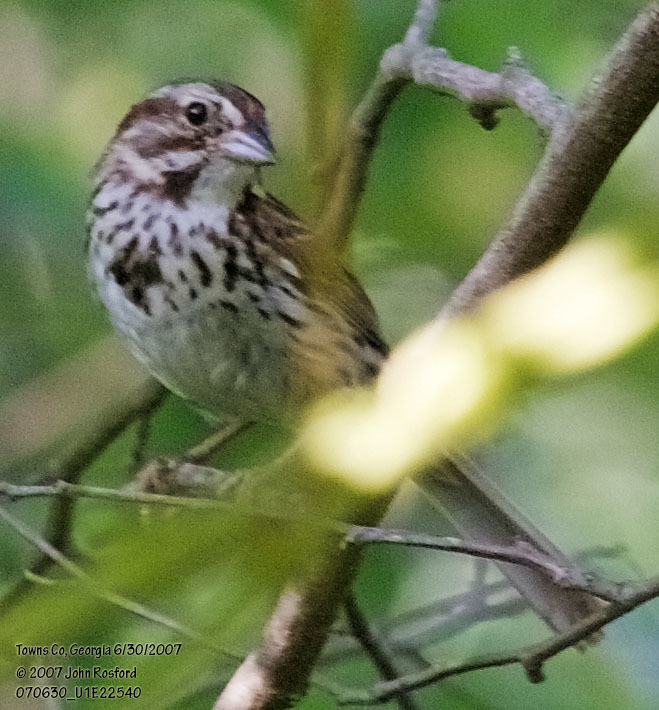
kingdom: Animalia
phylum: Chordata
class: Aves
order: Passeriformes
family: Passerellidae
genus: Melospiza
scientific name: Melospiza melodia
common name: Song sparrow
